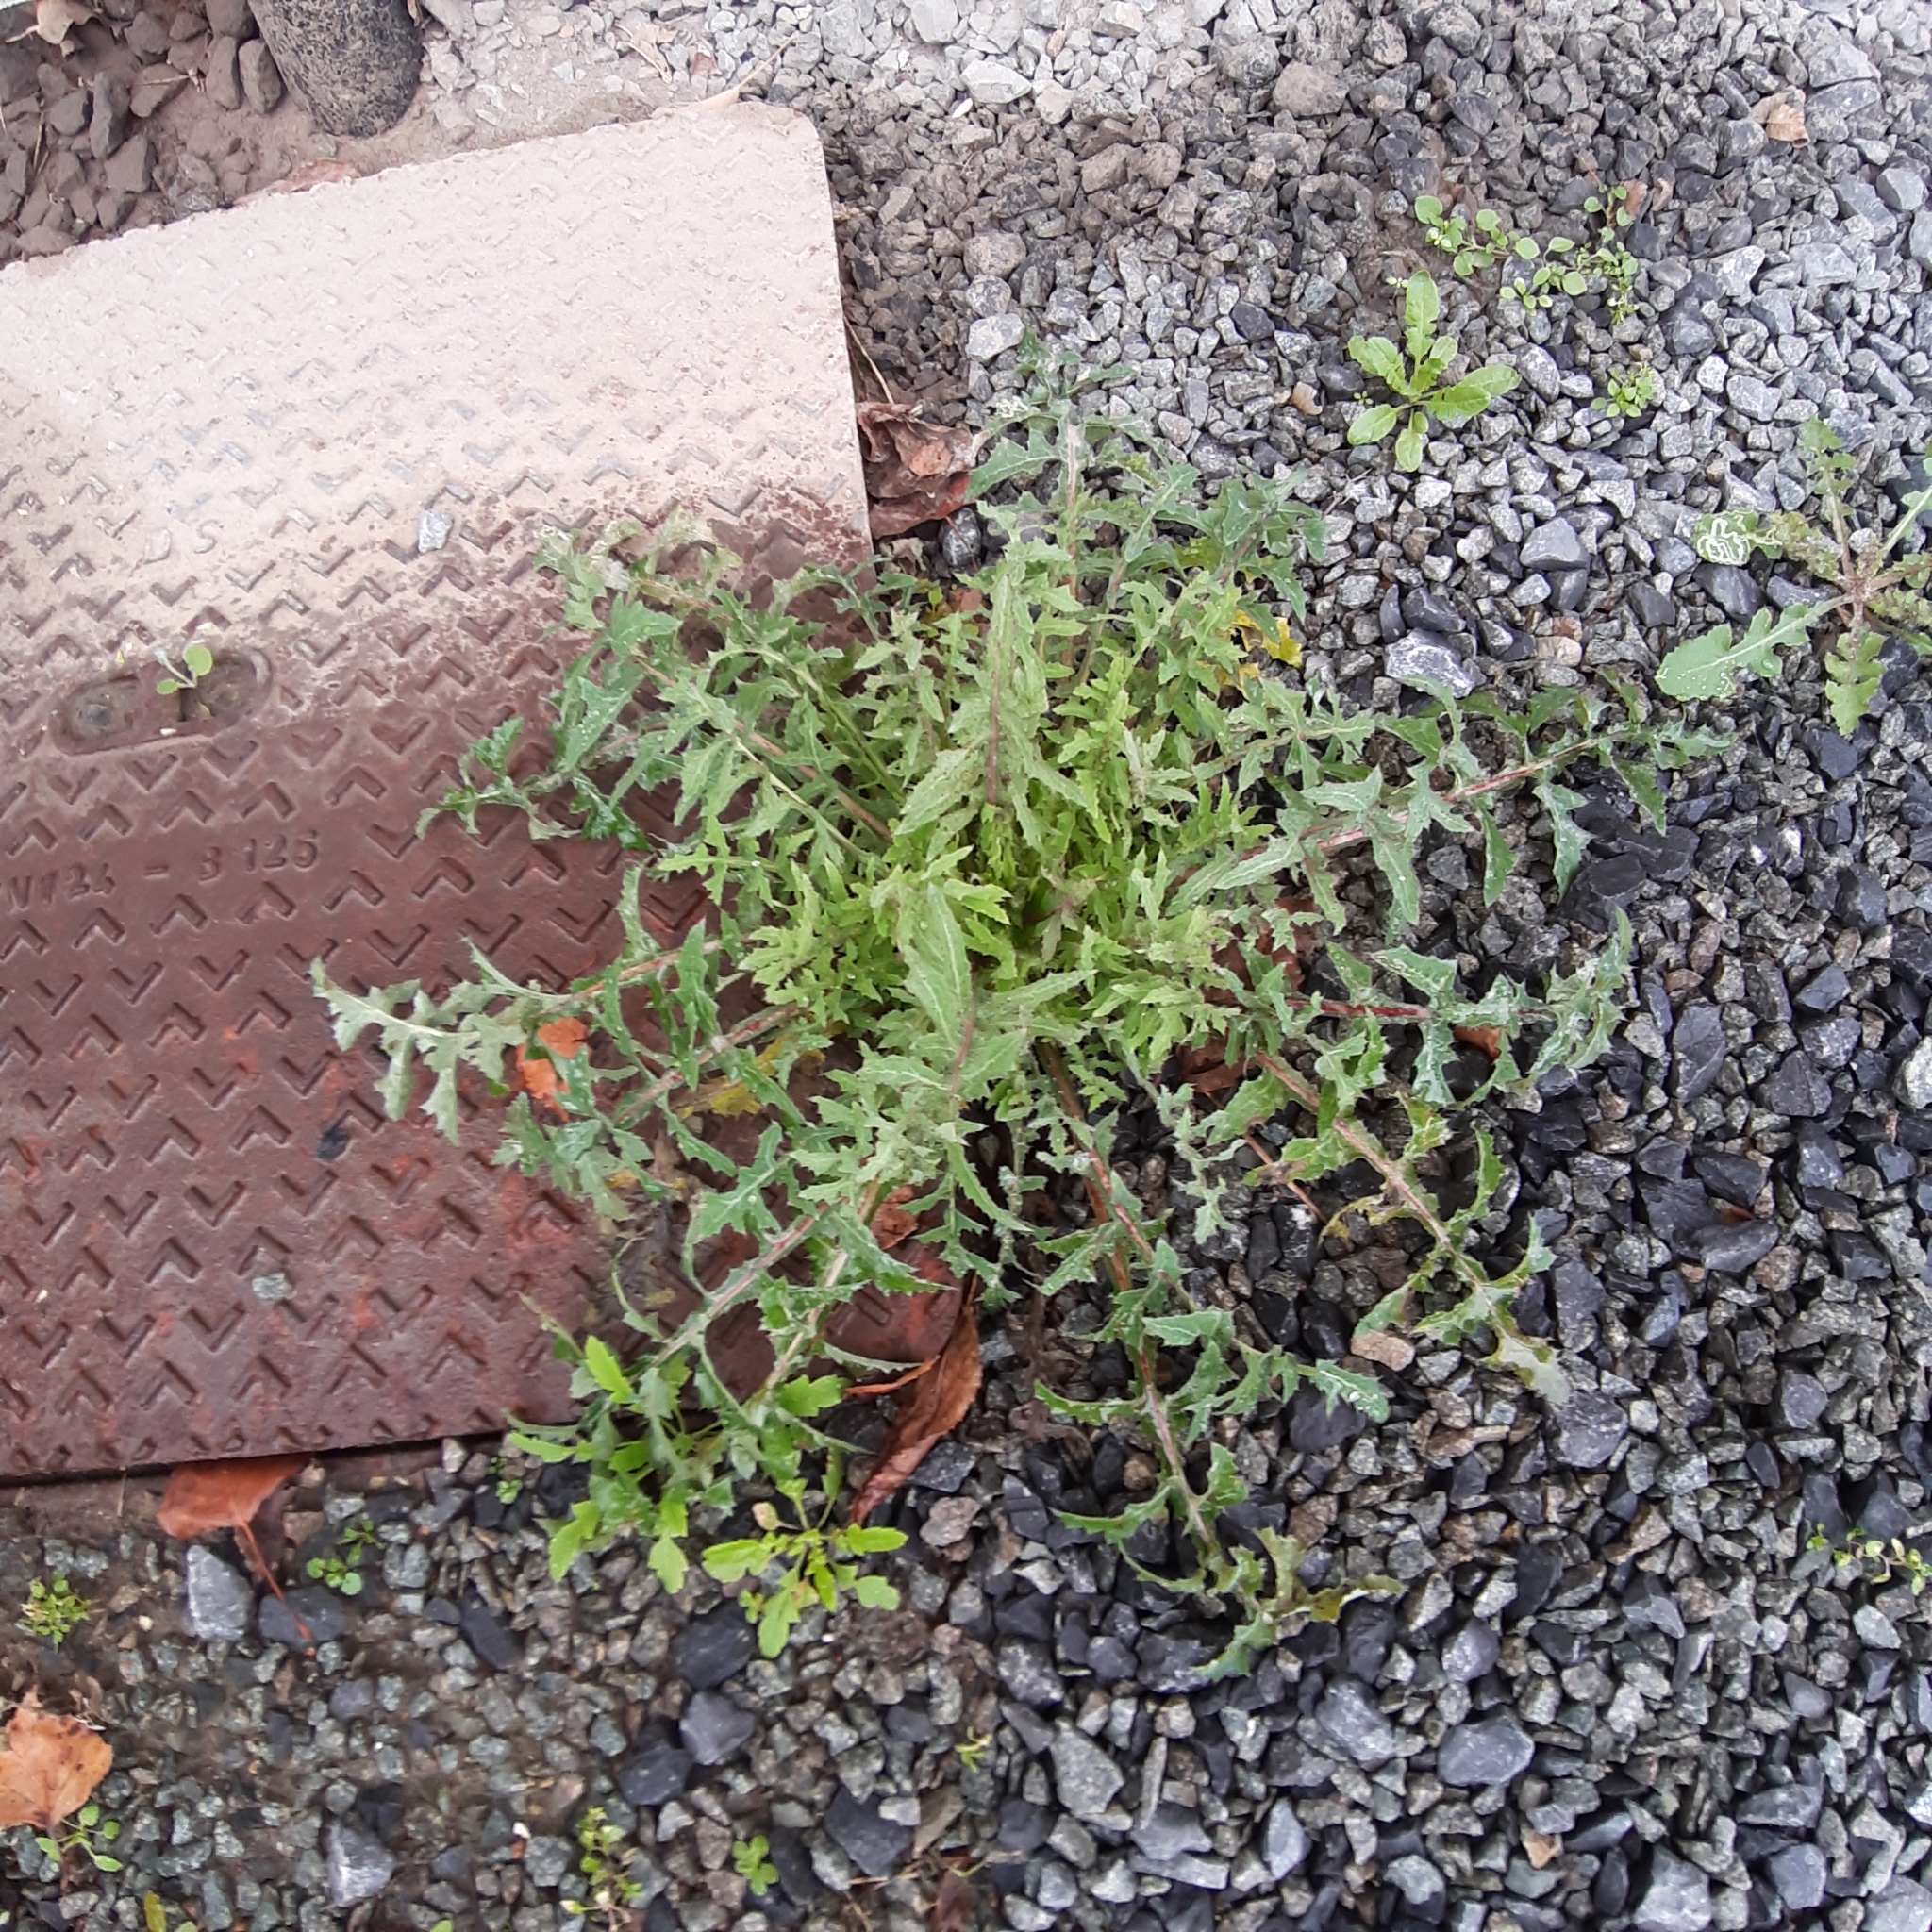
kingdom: Plantae
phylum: Tracheophyta
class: Magnoliopsida
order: Asterales
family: Asteraceae
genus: Sonchus
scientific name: Sonchus oleraceus
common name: Common sowthistle
